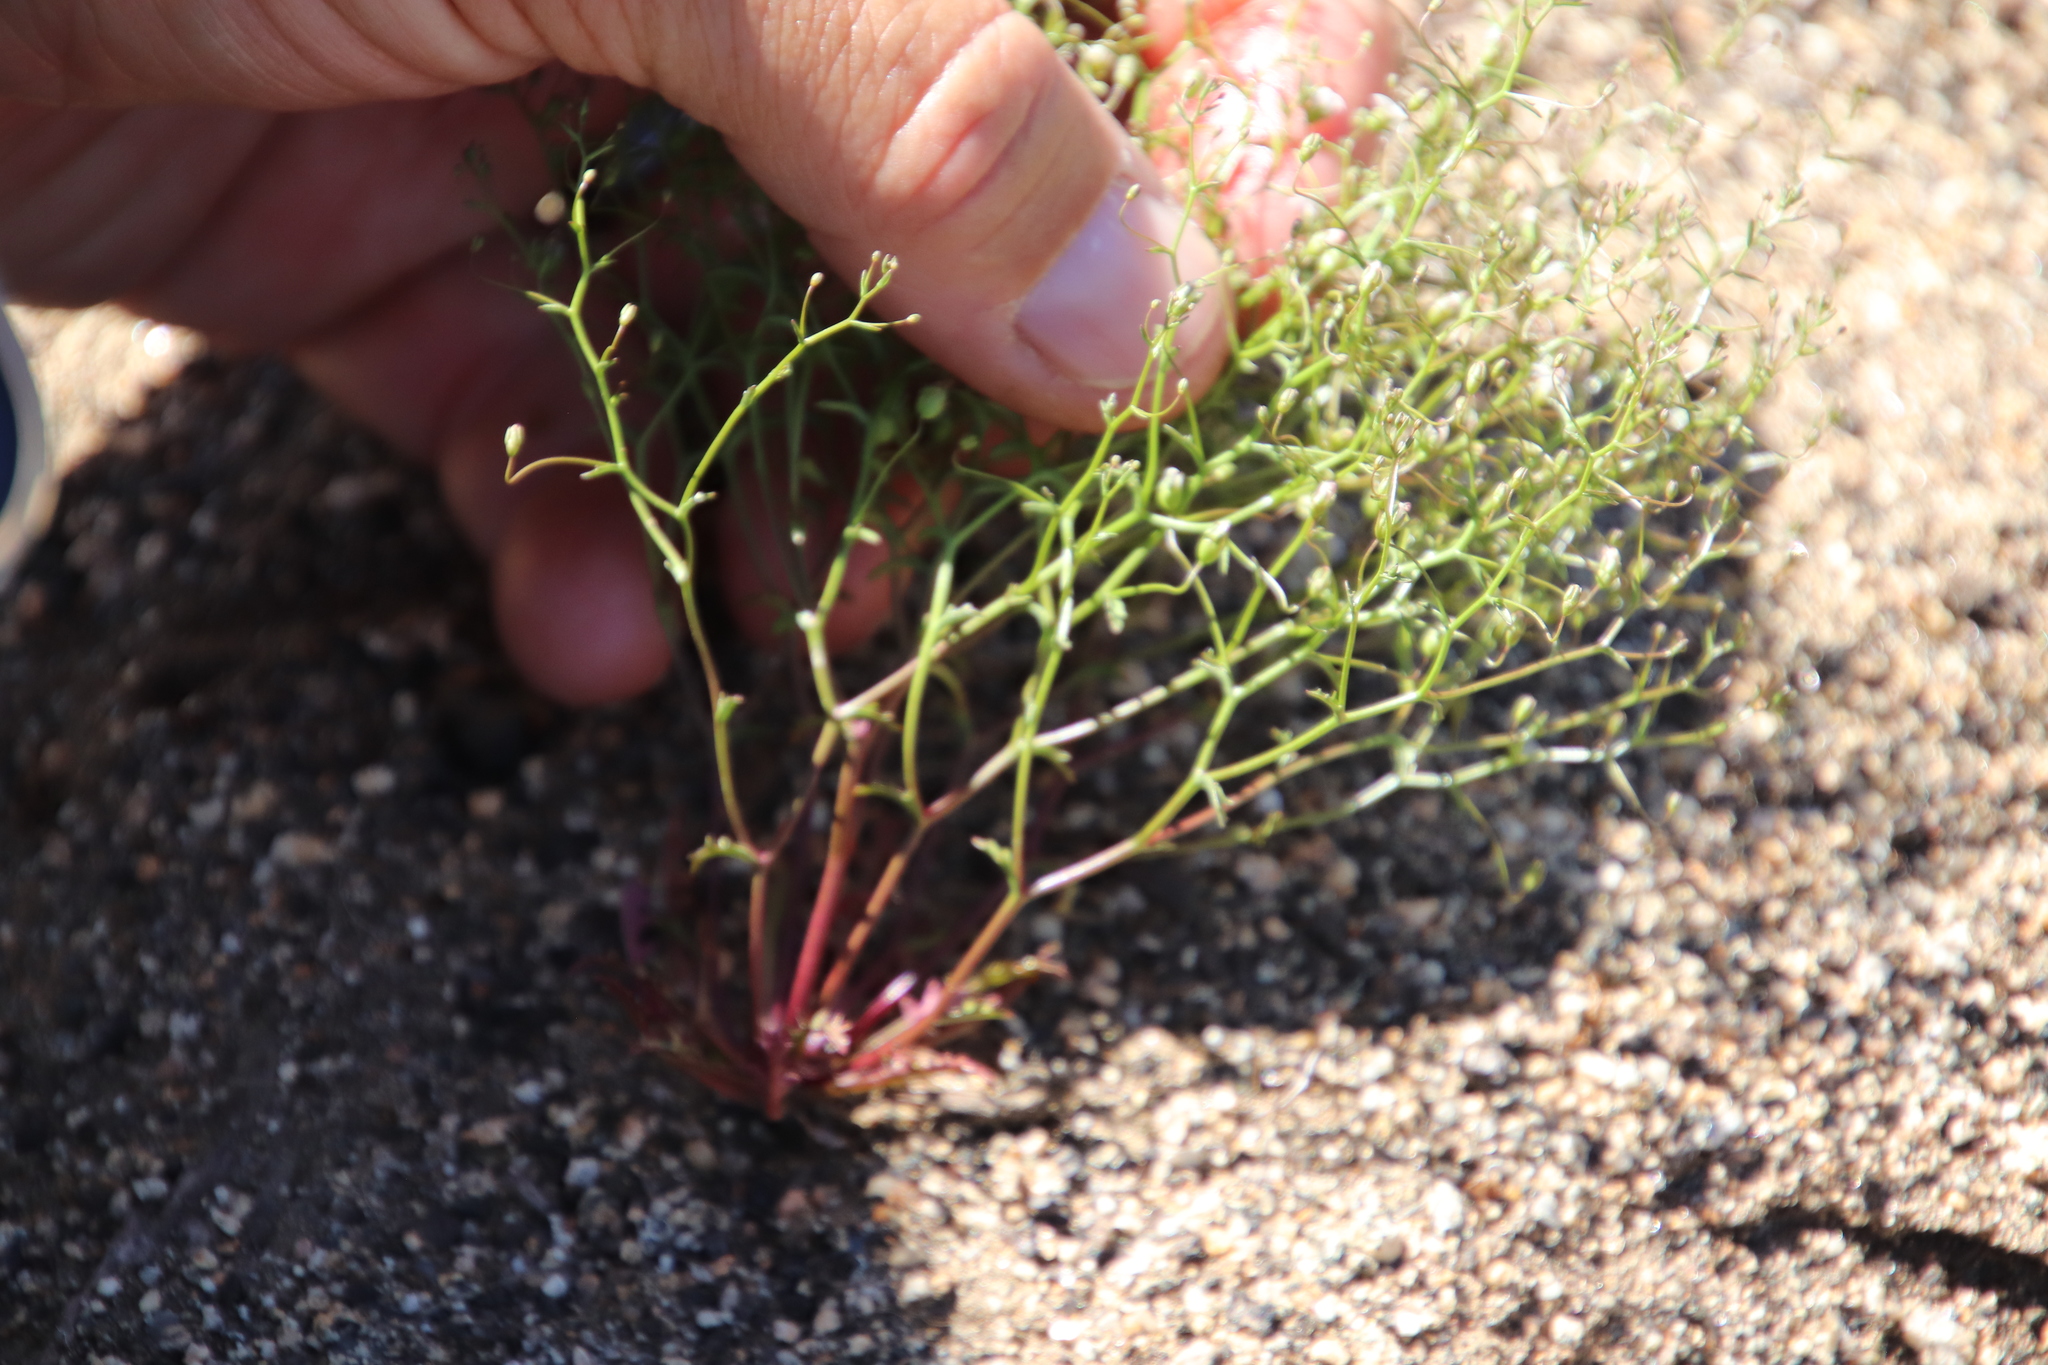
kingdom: Plantae
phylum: Tracheophyta
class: Magnoliopsida
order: Asterales
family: Campanulaceae
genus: Nemacladus
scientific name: Nemacladus pinnatifidus
